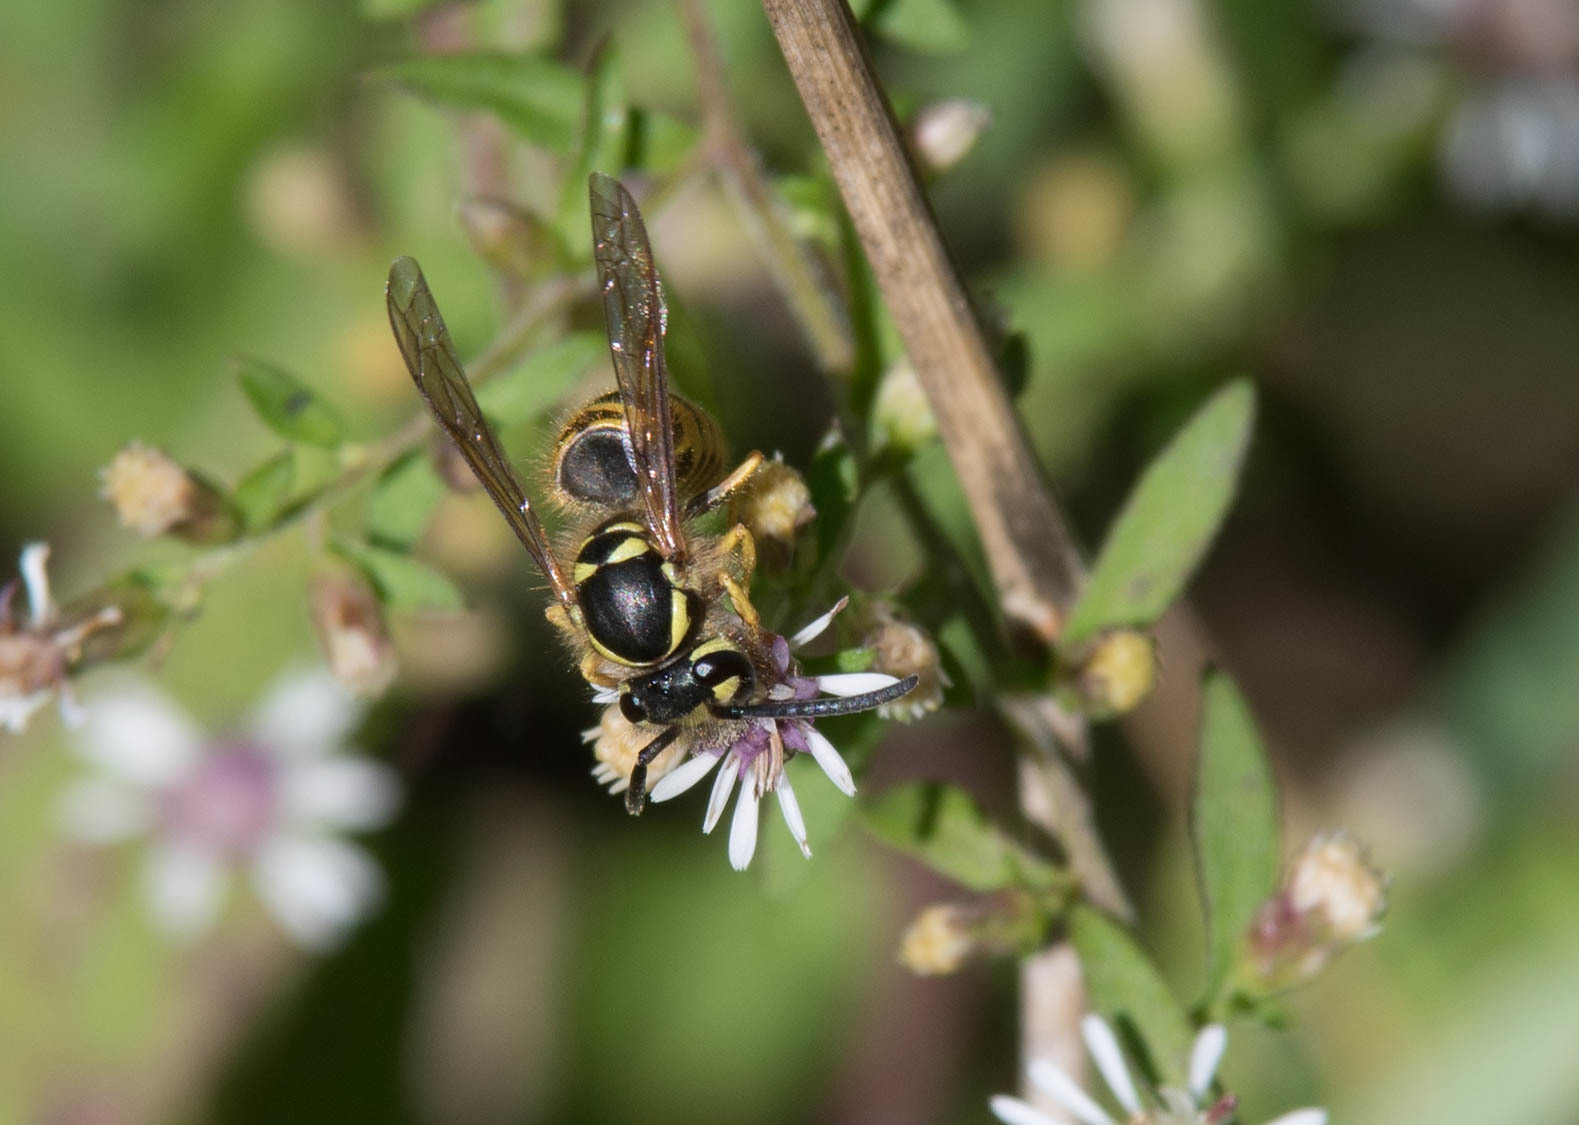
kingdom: Animalia
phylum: Arthropoda
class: Insecta
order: Hymenoptera
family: Vespidae
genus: Vespula
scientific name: Vespula maculifrons
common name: Eastern yellowjacket
